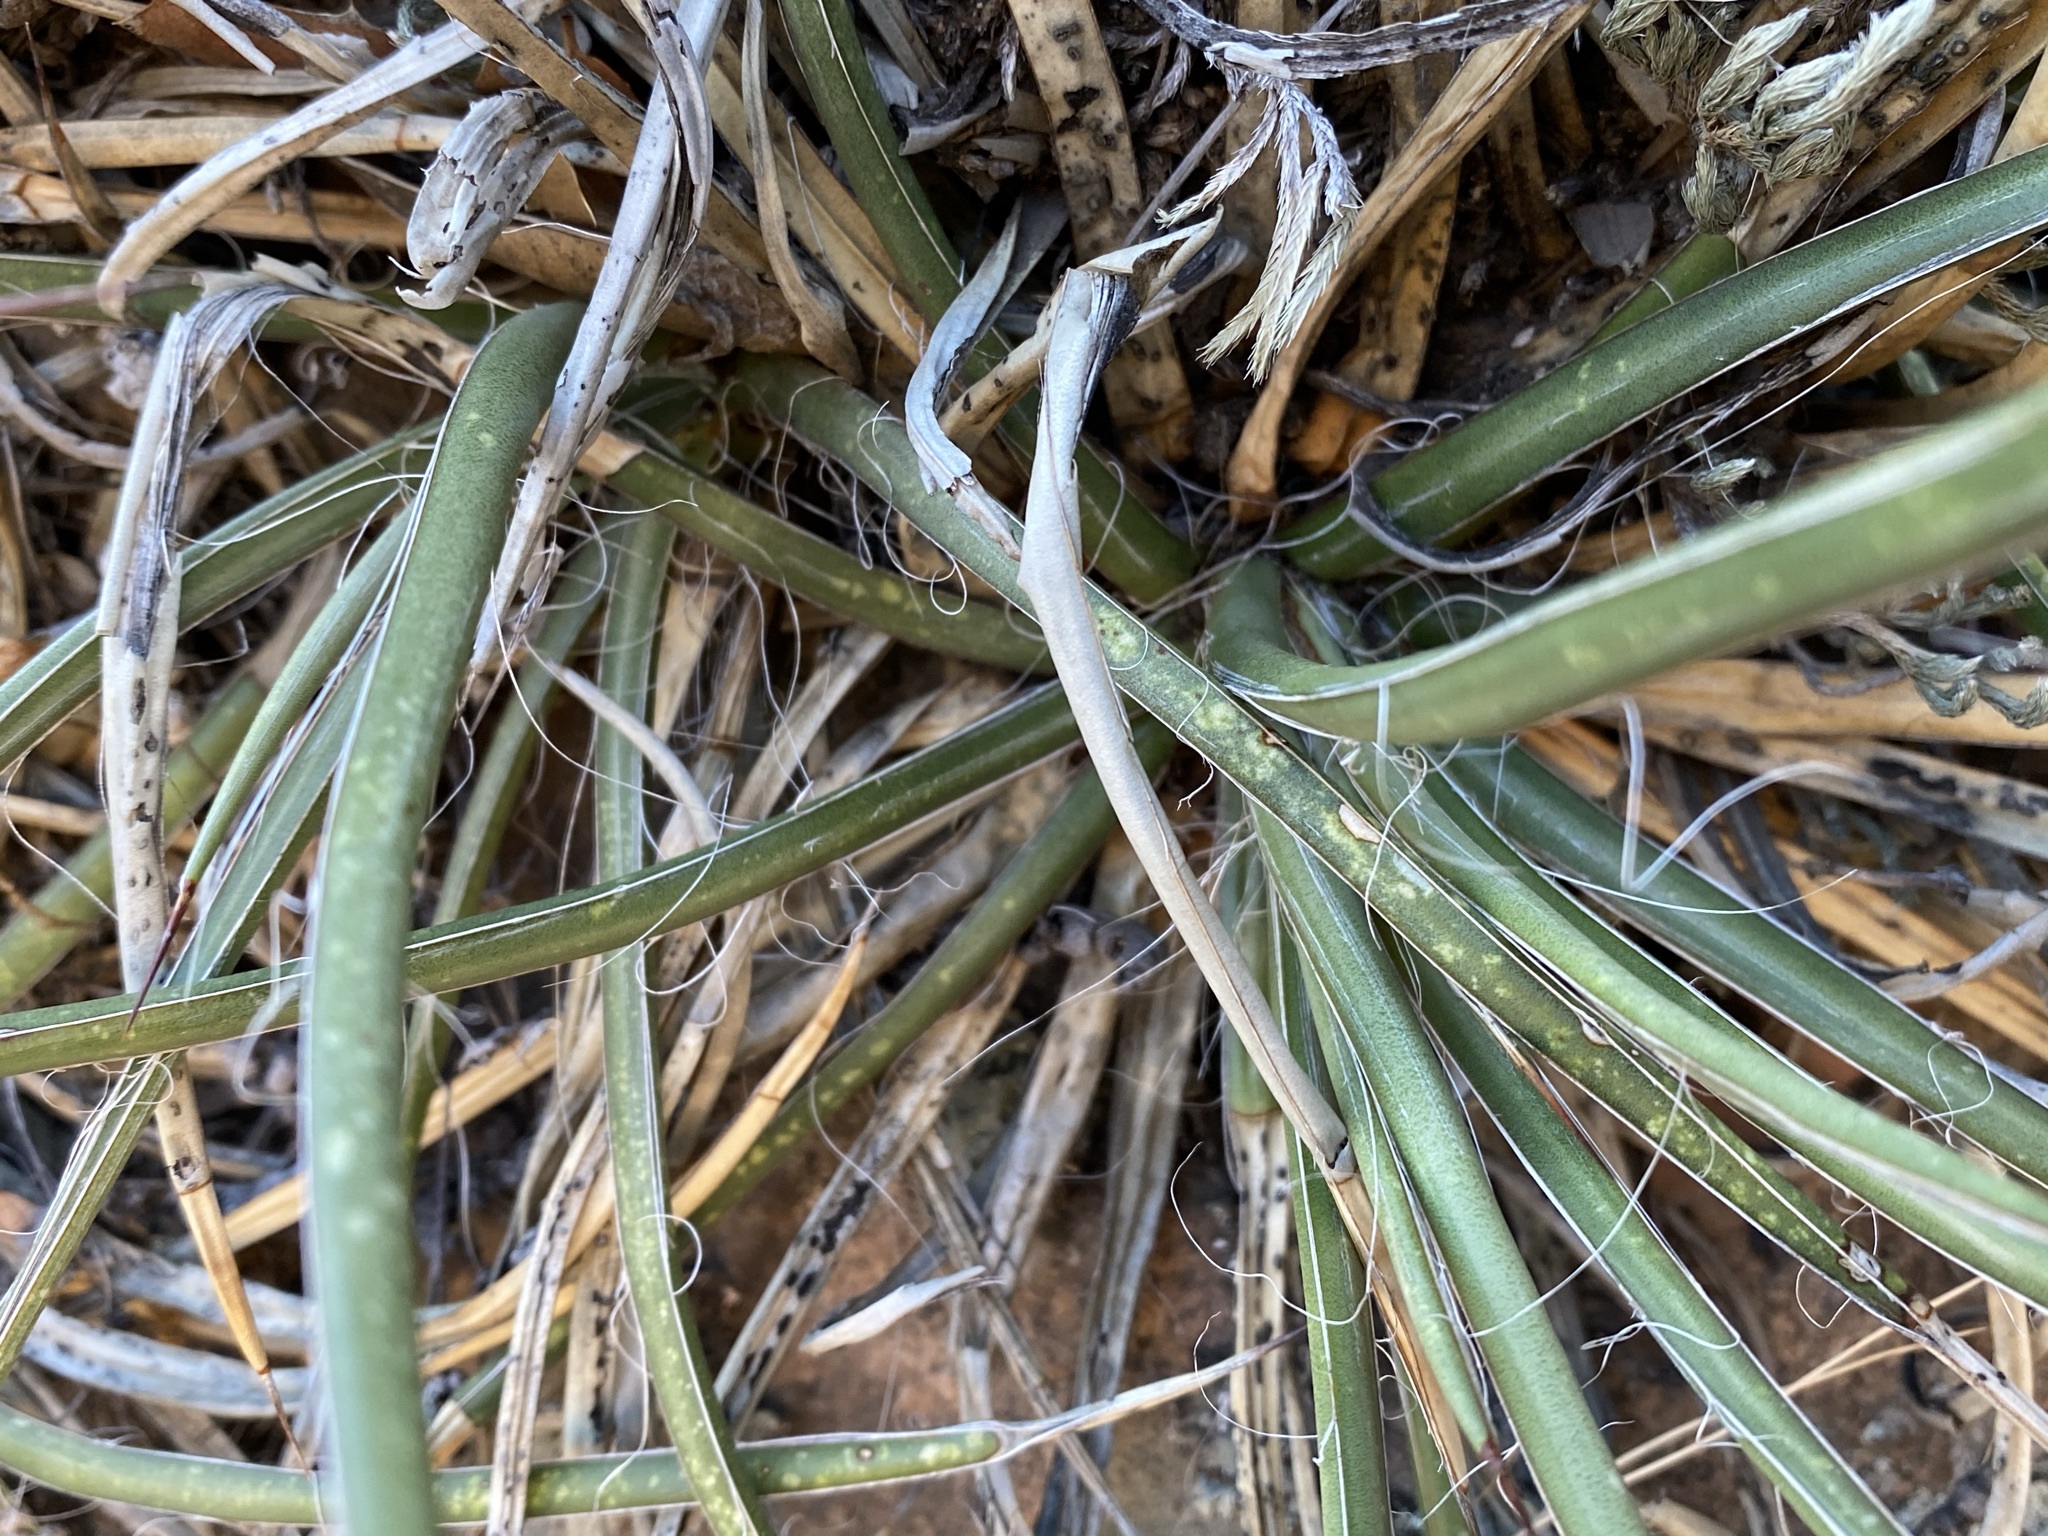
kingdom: Plantae
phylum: Tracheophyta
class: Liliopsida
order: Asparagales
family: Asparagaceae
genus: Agave
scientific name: Agave schottii
